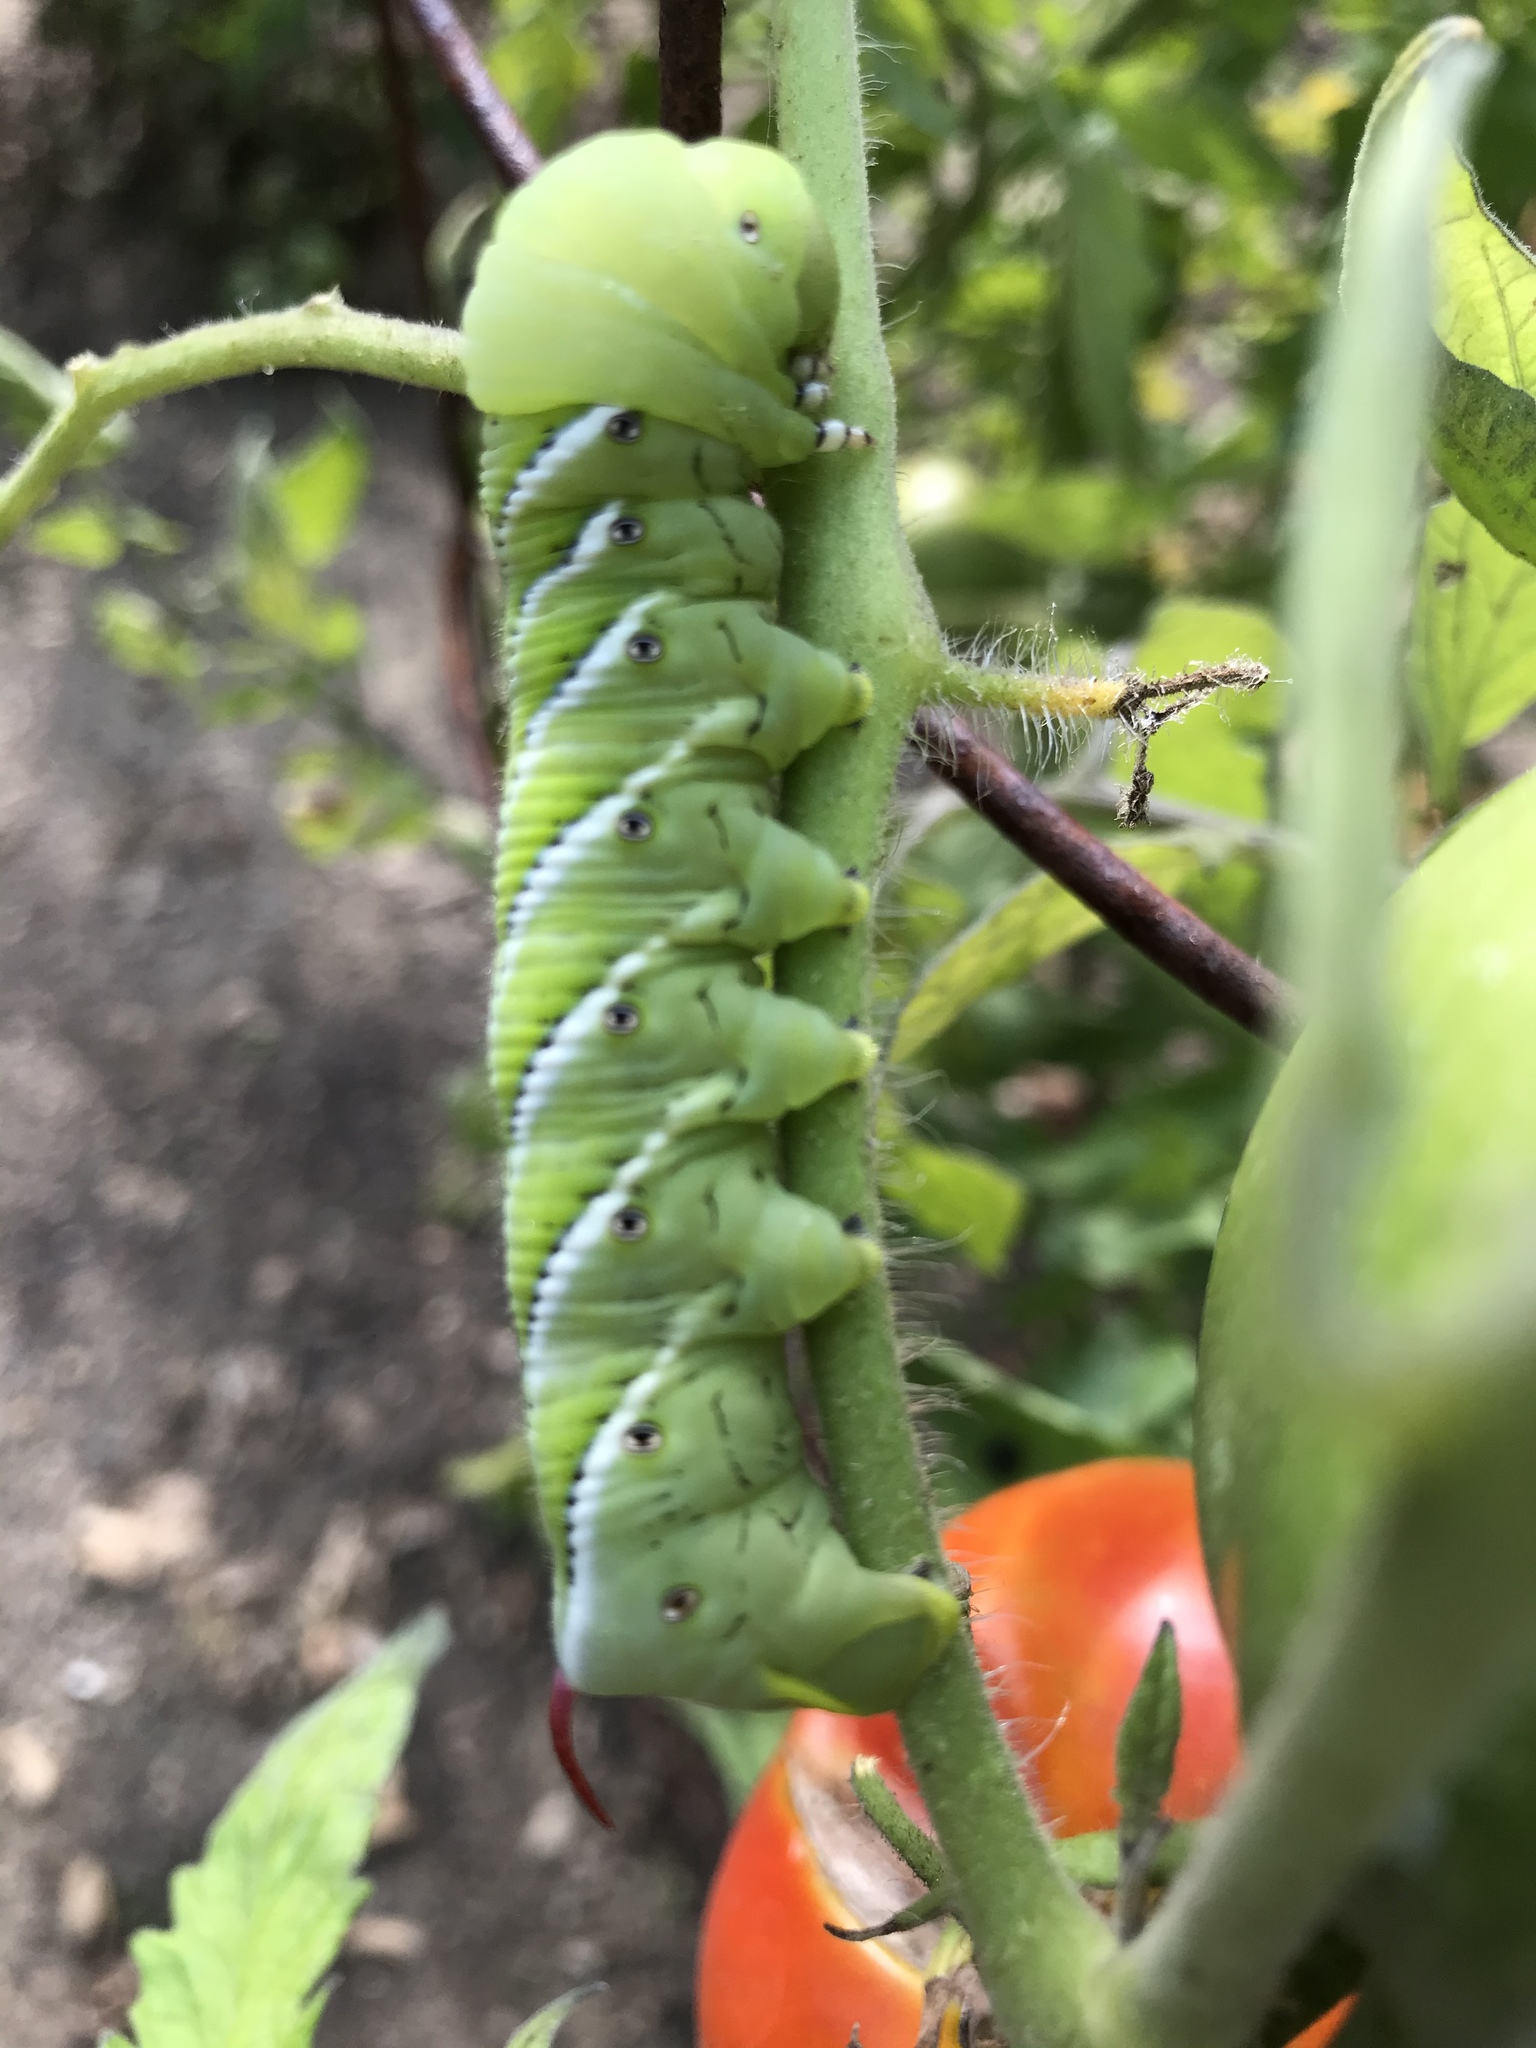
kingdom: Animalia
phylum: Arthropoda
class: Insecta
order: Lepidoptera
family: Sphingidae
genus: Manduca
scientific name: Manduca sexta
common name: Carolina sphinx
